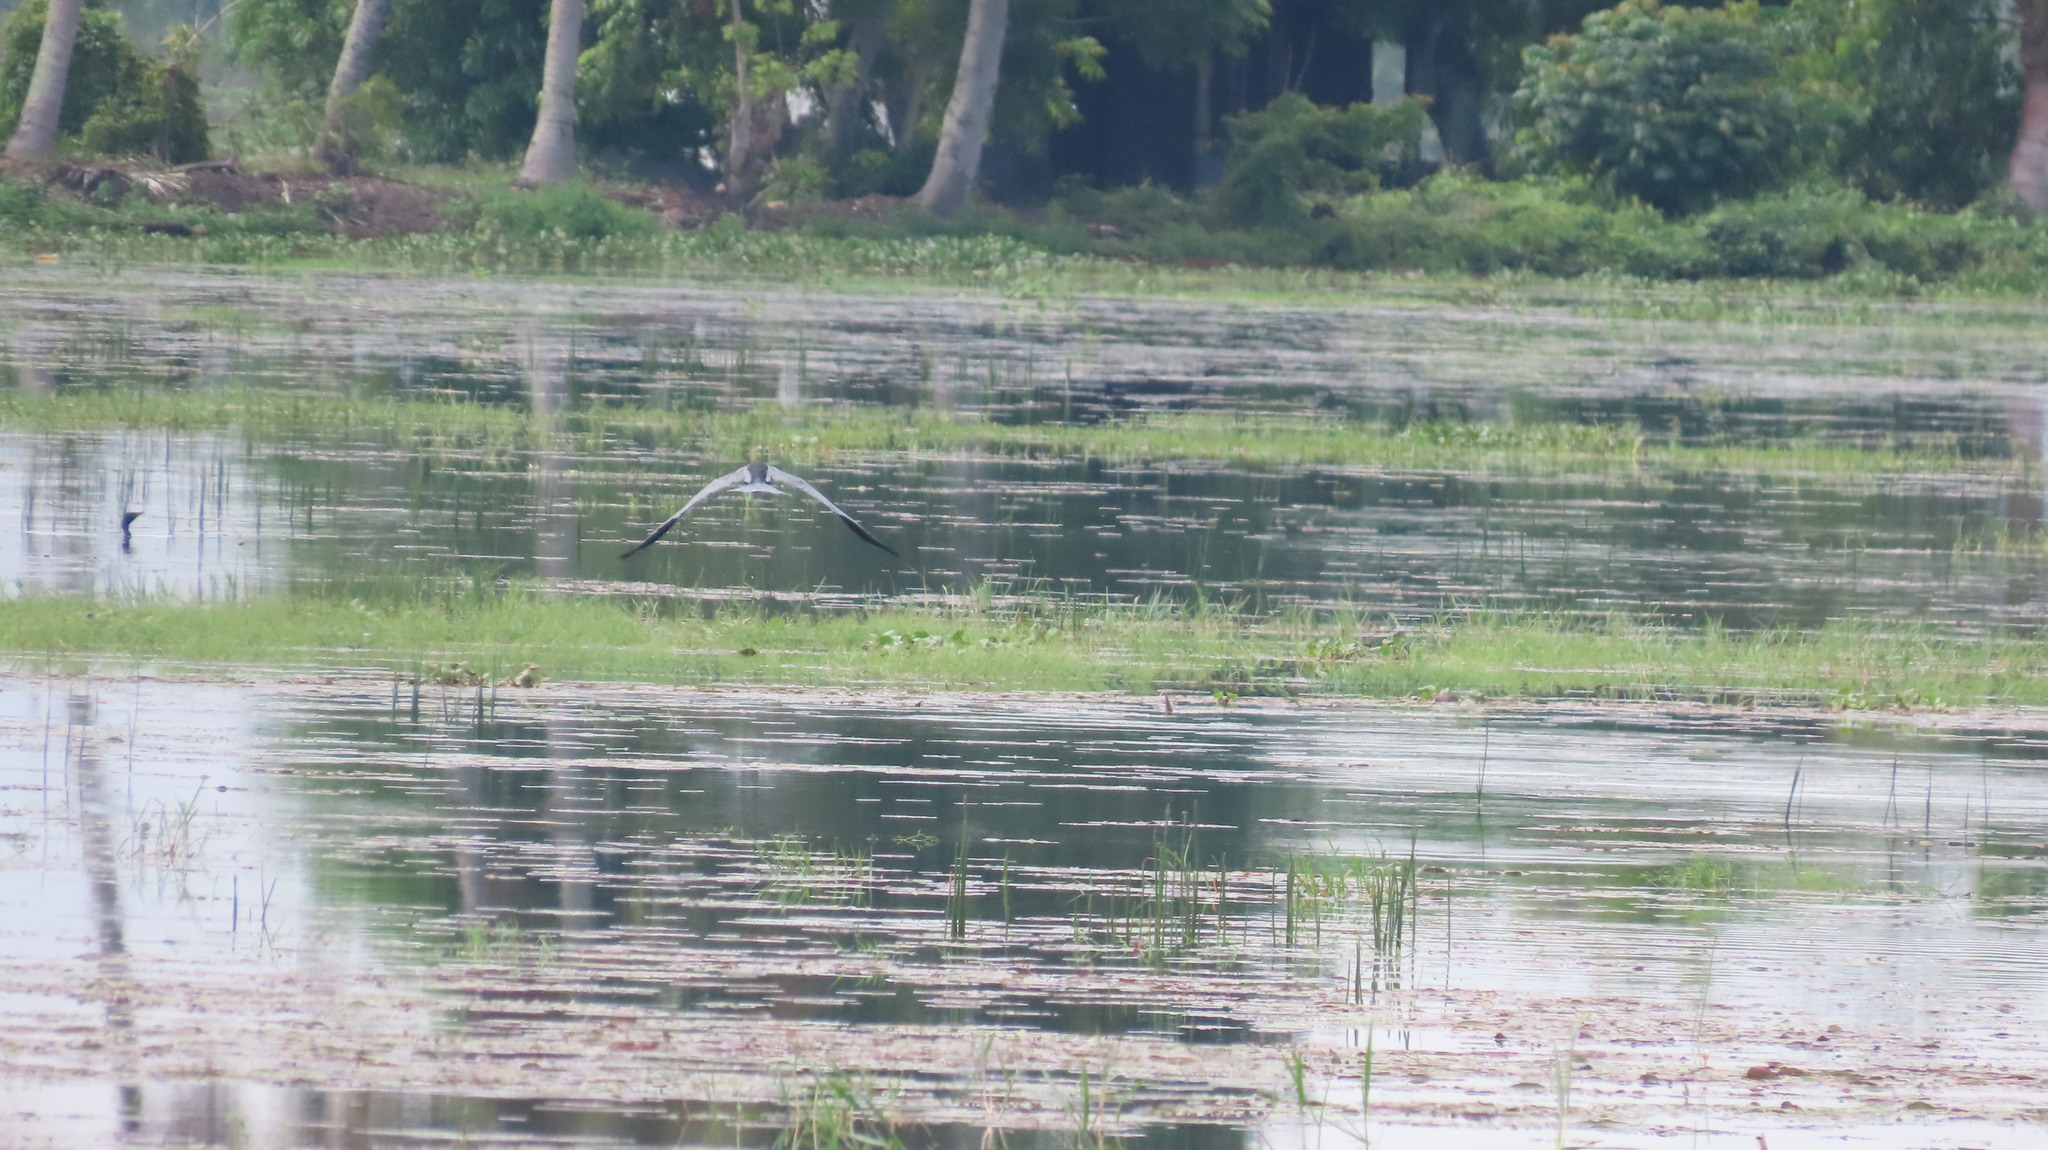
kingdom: Animalia
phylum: Chordata
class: Aves
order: Suliformes
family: Anhingidae
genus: Anhinga
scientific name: Anhinga melanogaster
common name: Oriental darter
